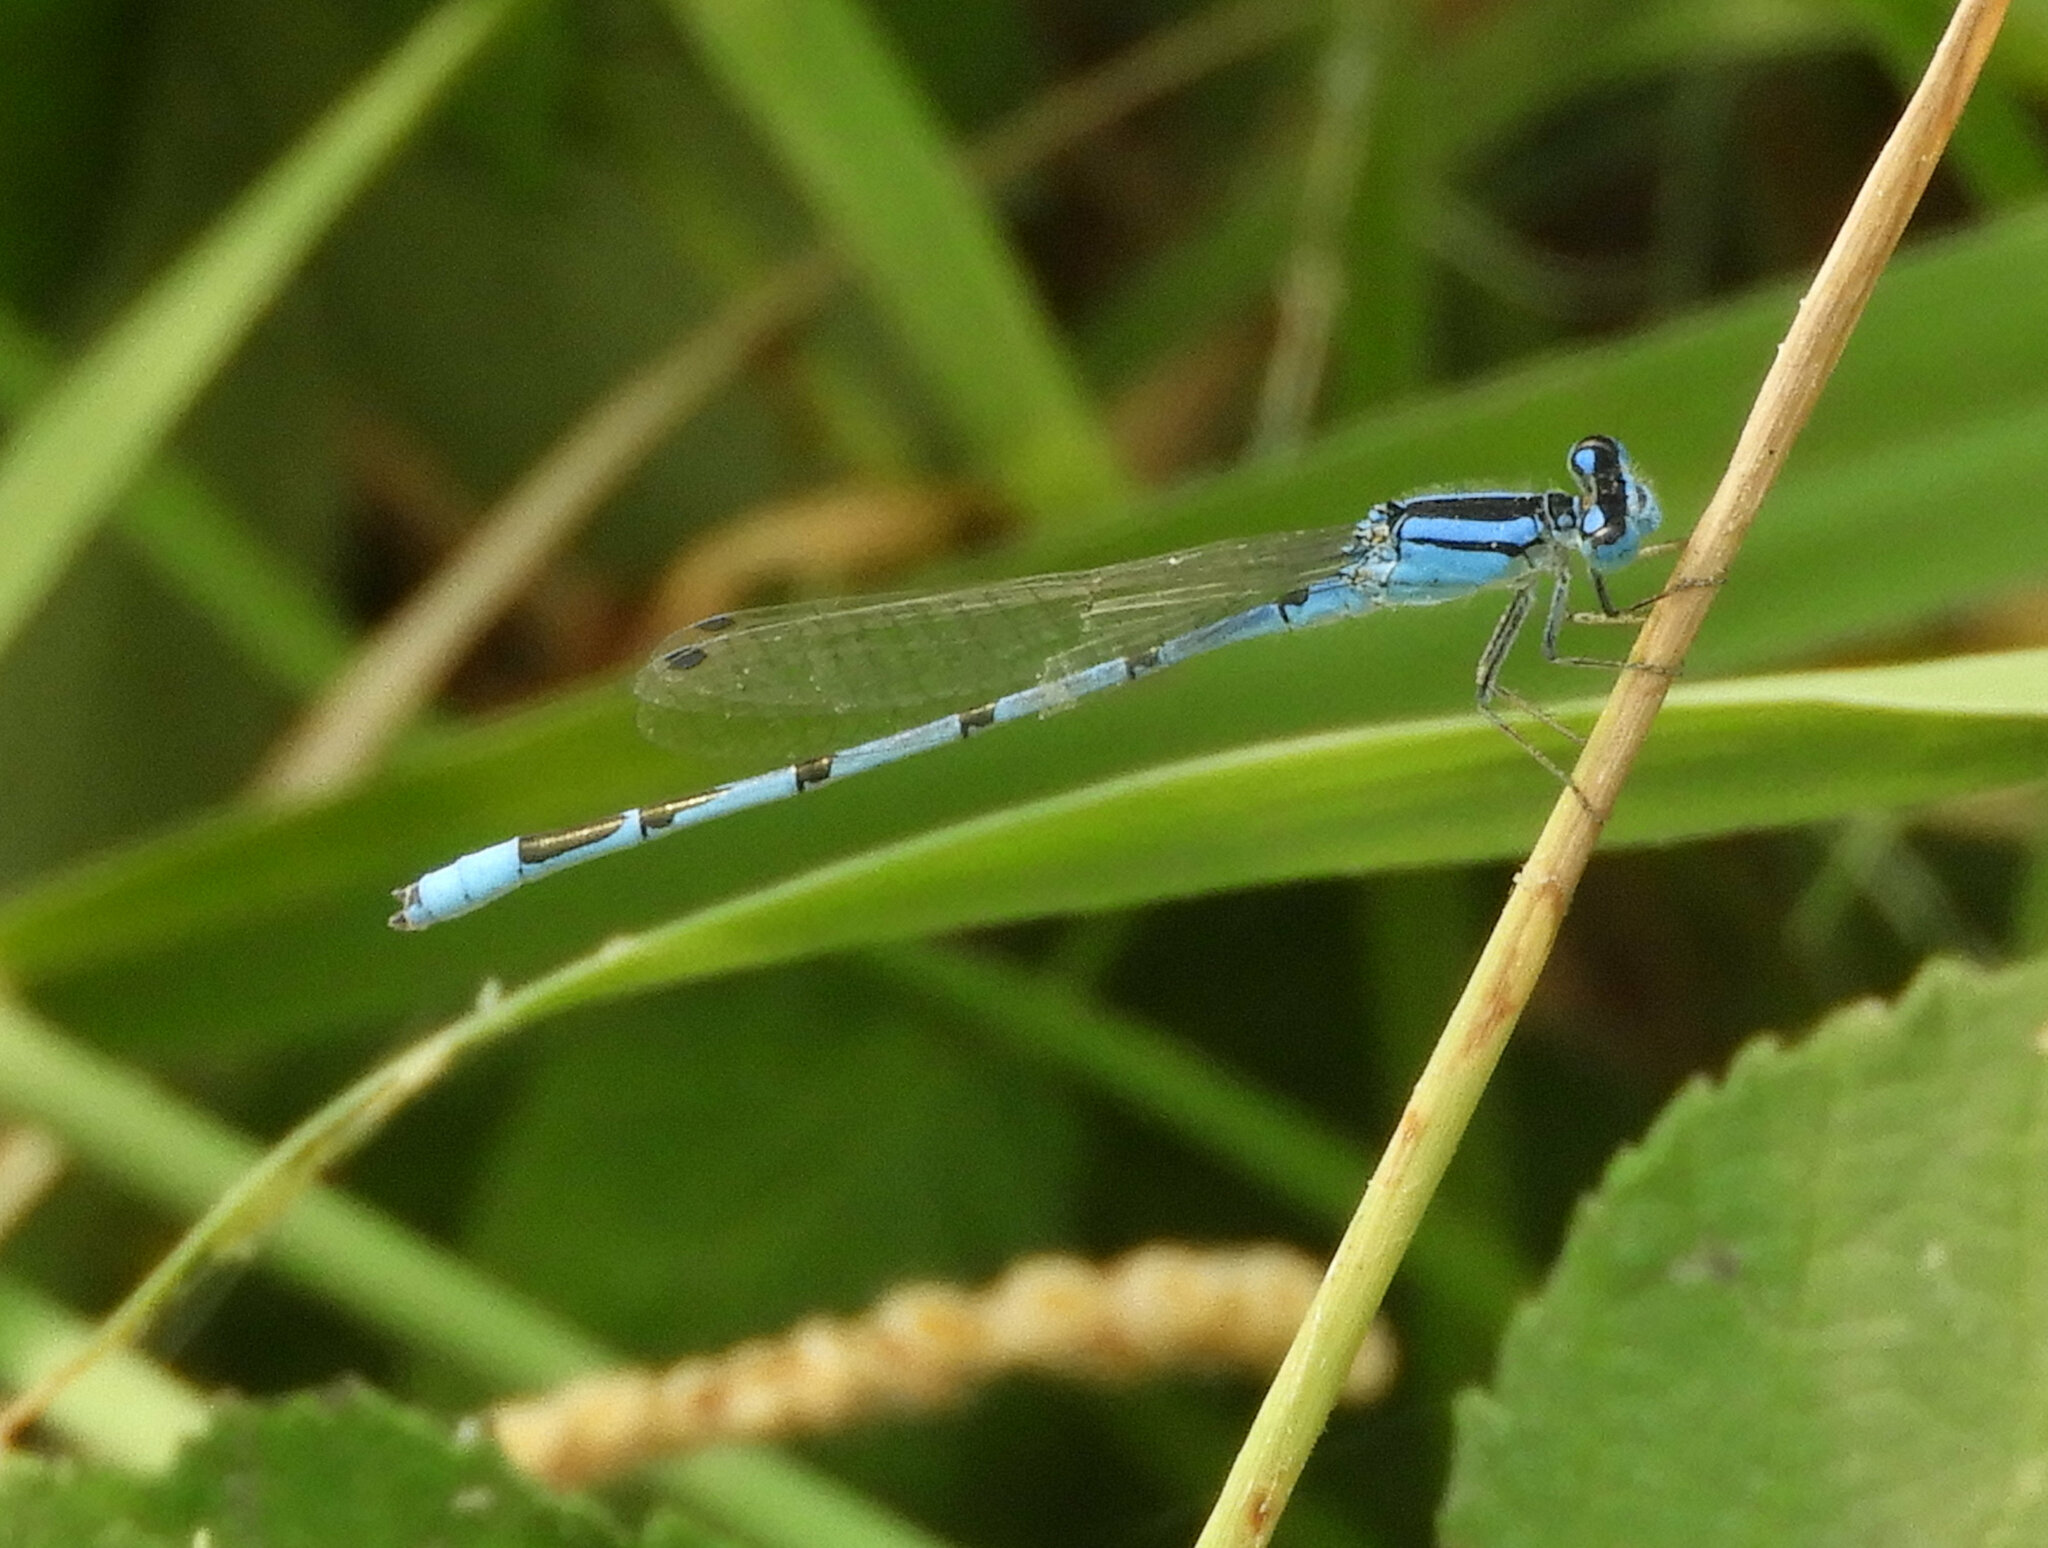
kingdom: Animalia
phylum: Arthropoda
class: Insecta
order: Odonata
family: Coenagrionidae
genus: Enallagma
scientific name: Enallagma civile
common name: Damselfly
